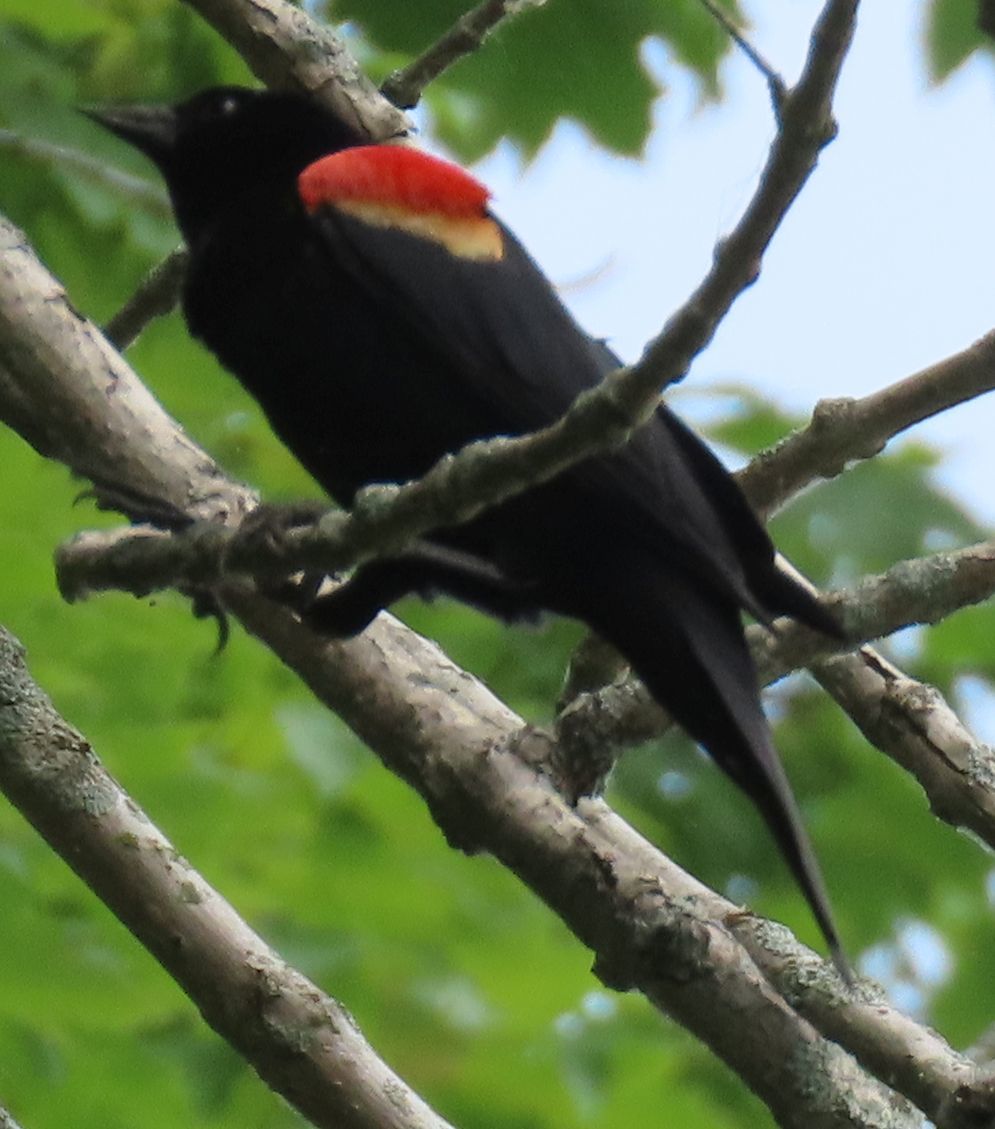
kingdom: Animalia
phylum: Chordata
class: Aves
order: Passeriformes
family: Icteridae
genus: Agelaius
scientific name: Agelaius phoeniceus
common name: Red-winged blackbird
